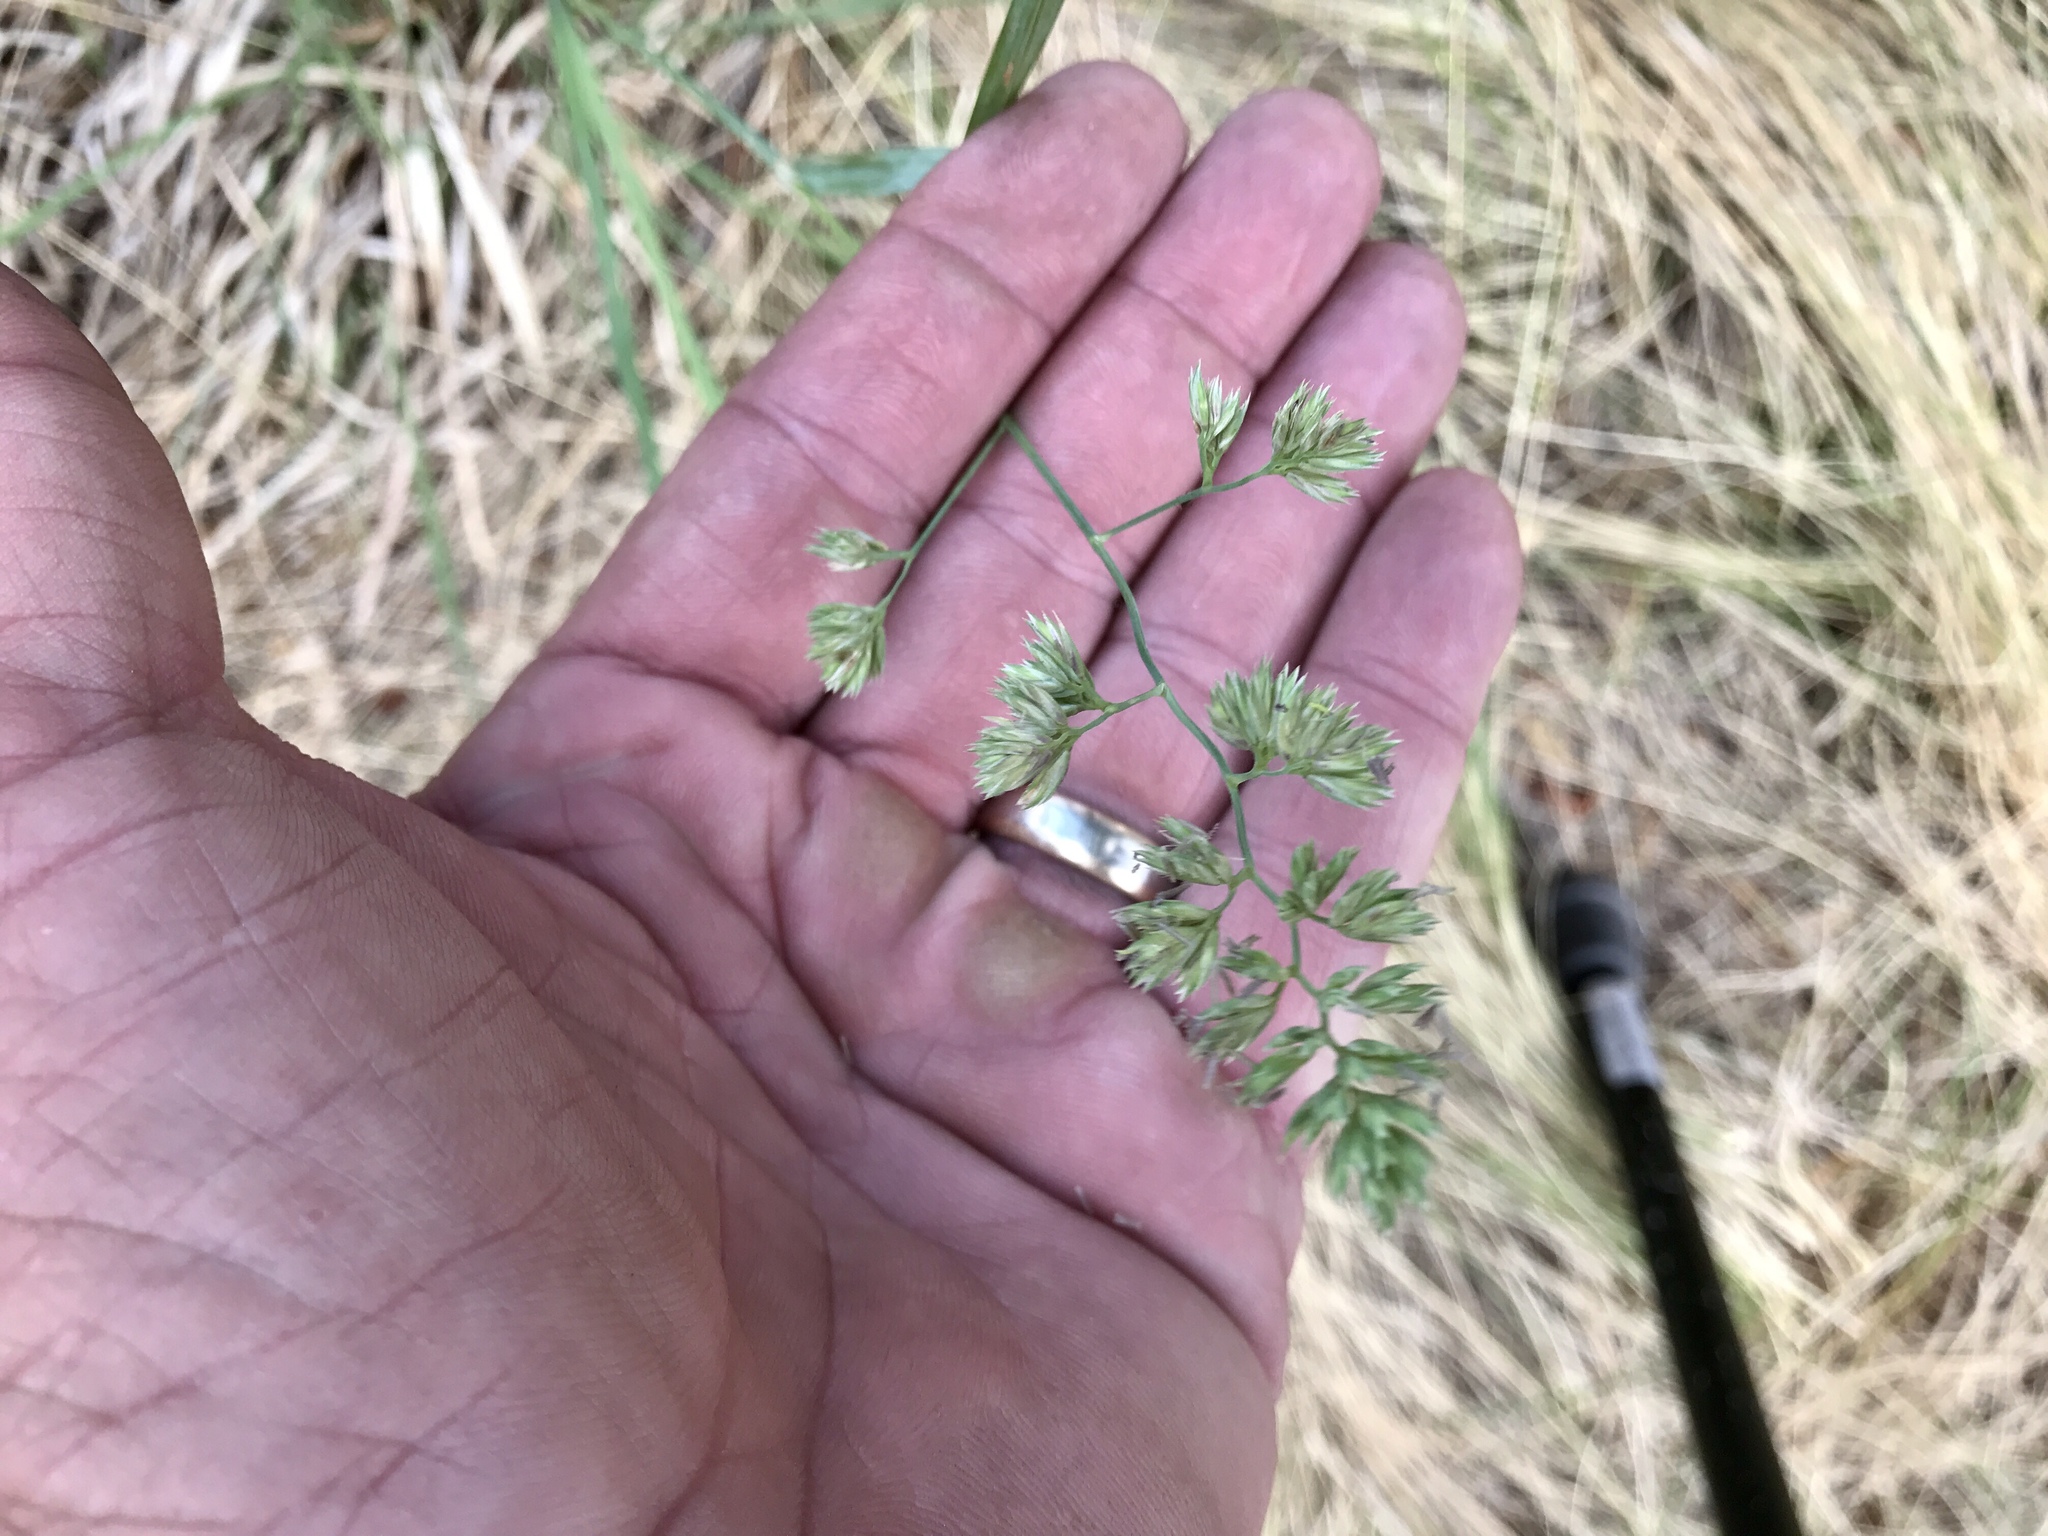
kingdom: Plantae
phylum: Tracheophyta
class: Liliopsida
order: Poales
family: Poaceae
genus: Dactylis
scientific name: Dactylis glomerata
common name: Orchardgrass
